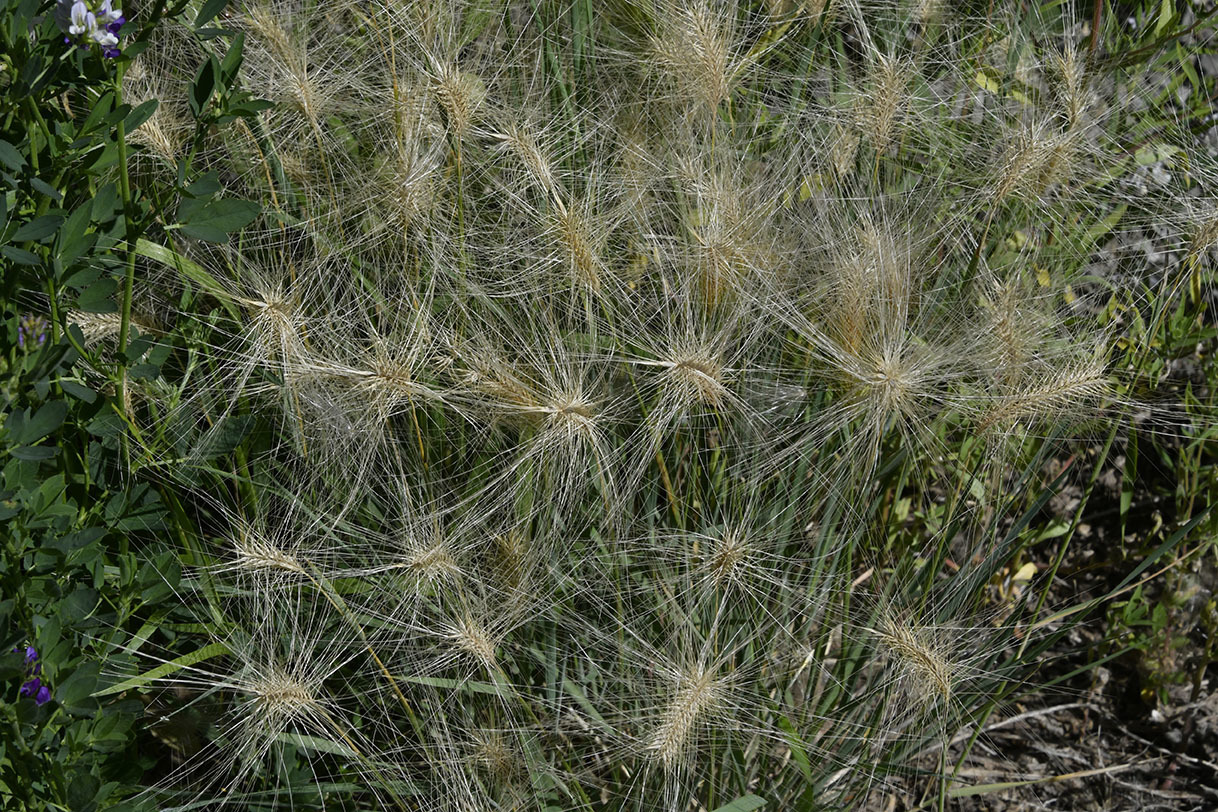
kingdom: Plantae
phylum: Tracheophyta
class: Liliopsida
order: Poales
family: Poaceae
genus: Hordeum
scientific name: Hordeum jubatum
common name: Foxtail barley
